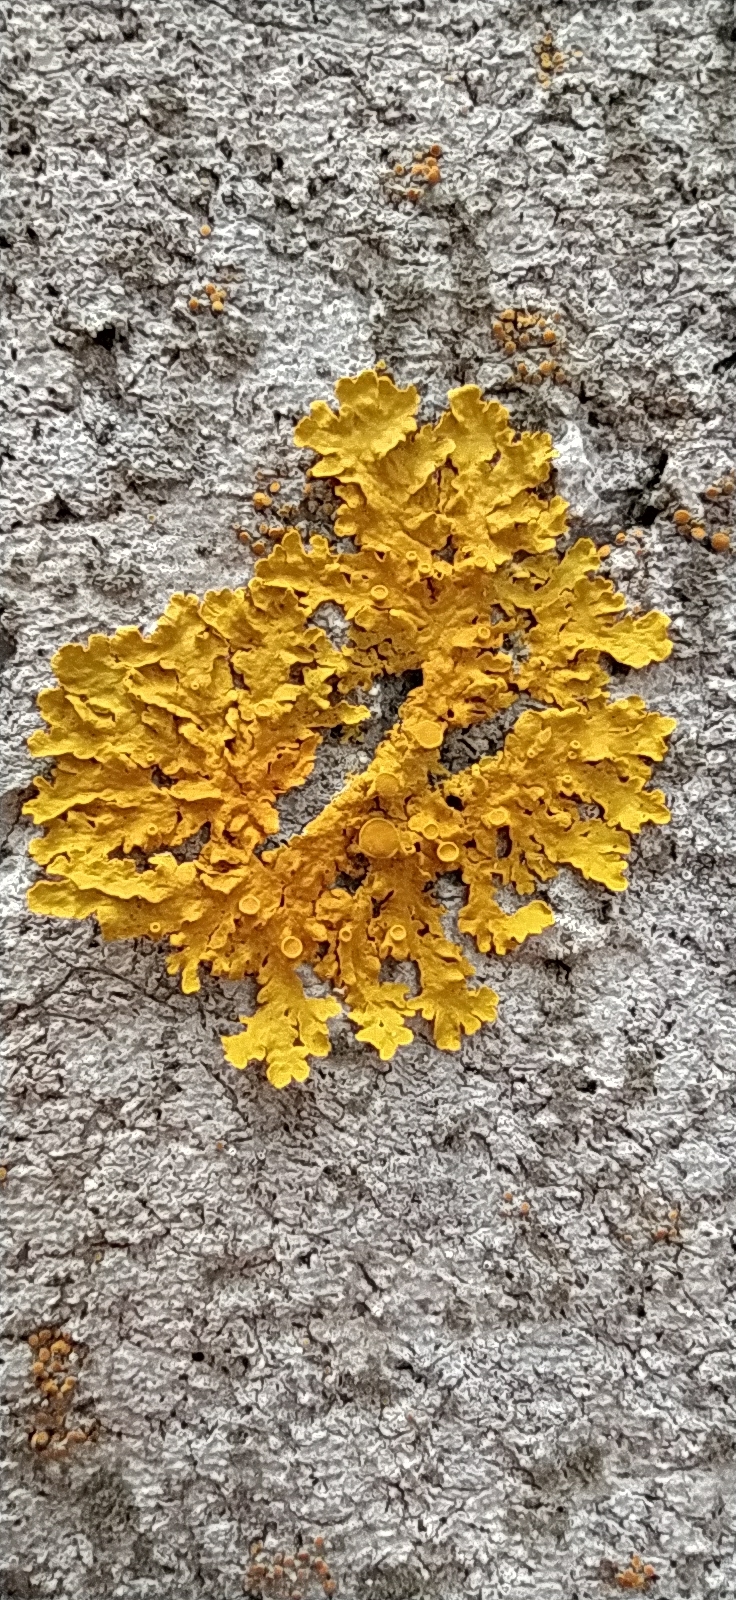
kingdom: Fungi
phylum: Ascomycota
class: Lecanoromycetes
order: Teloschistales
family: Teloschistaceae
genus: Xanthoria
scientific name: Xanthoria parietina
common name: Common orange lichen
